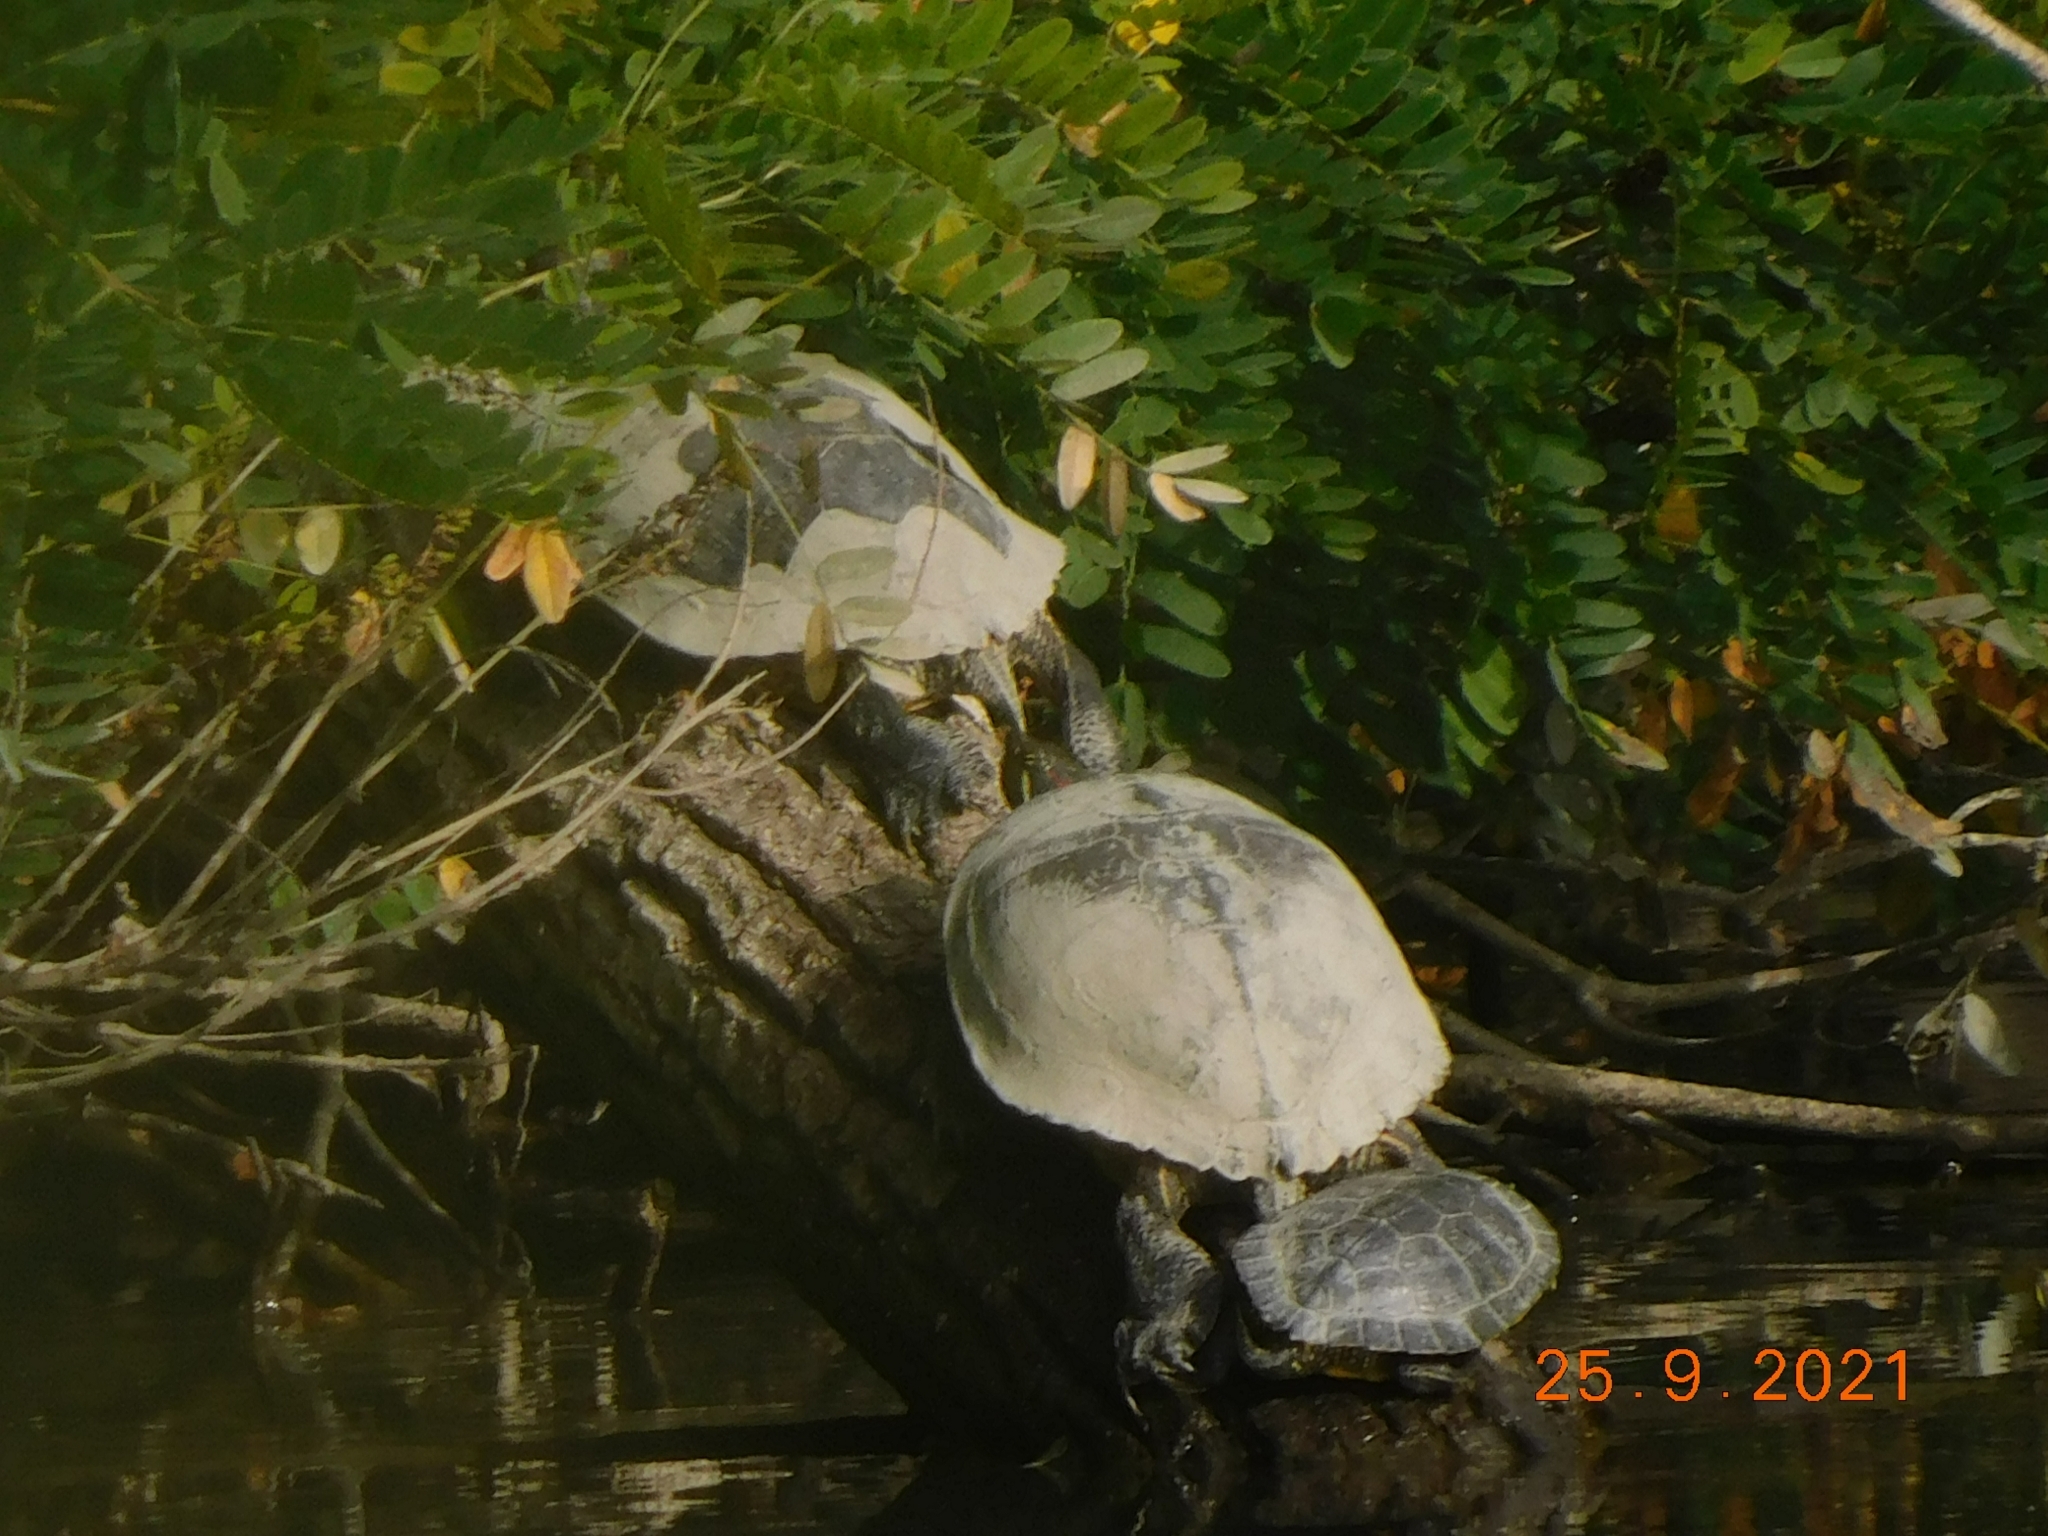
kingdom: Animalia
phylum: Chordata
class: Testudines
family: Emydidae
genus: Trachemys
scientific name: Trachemys scripta
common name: Slider
